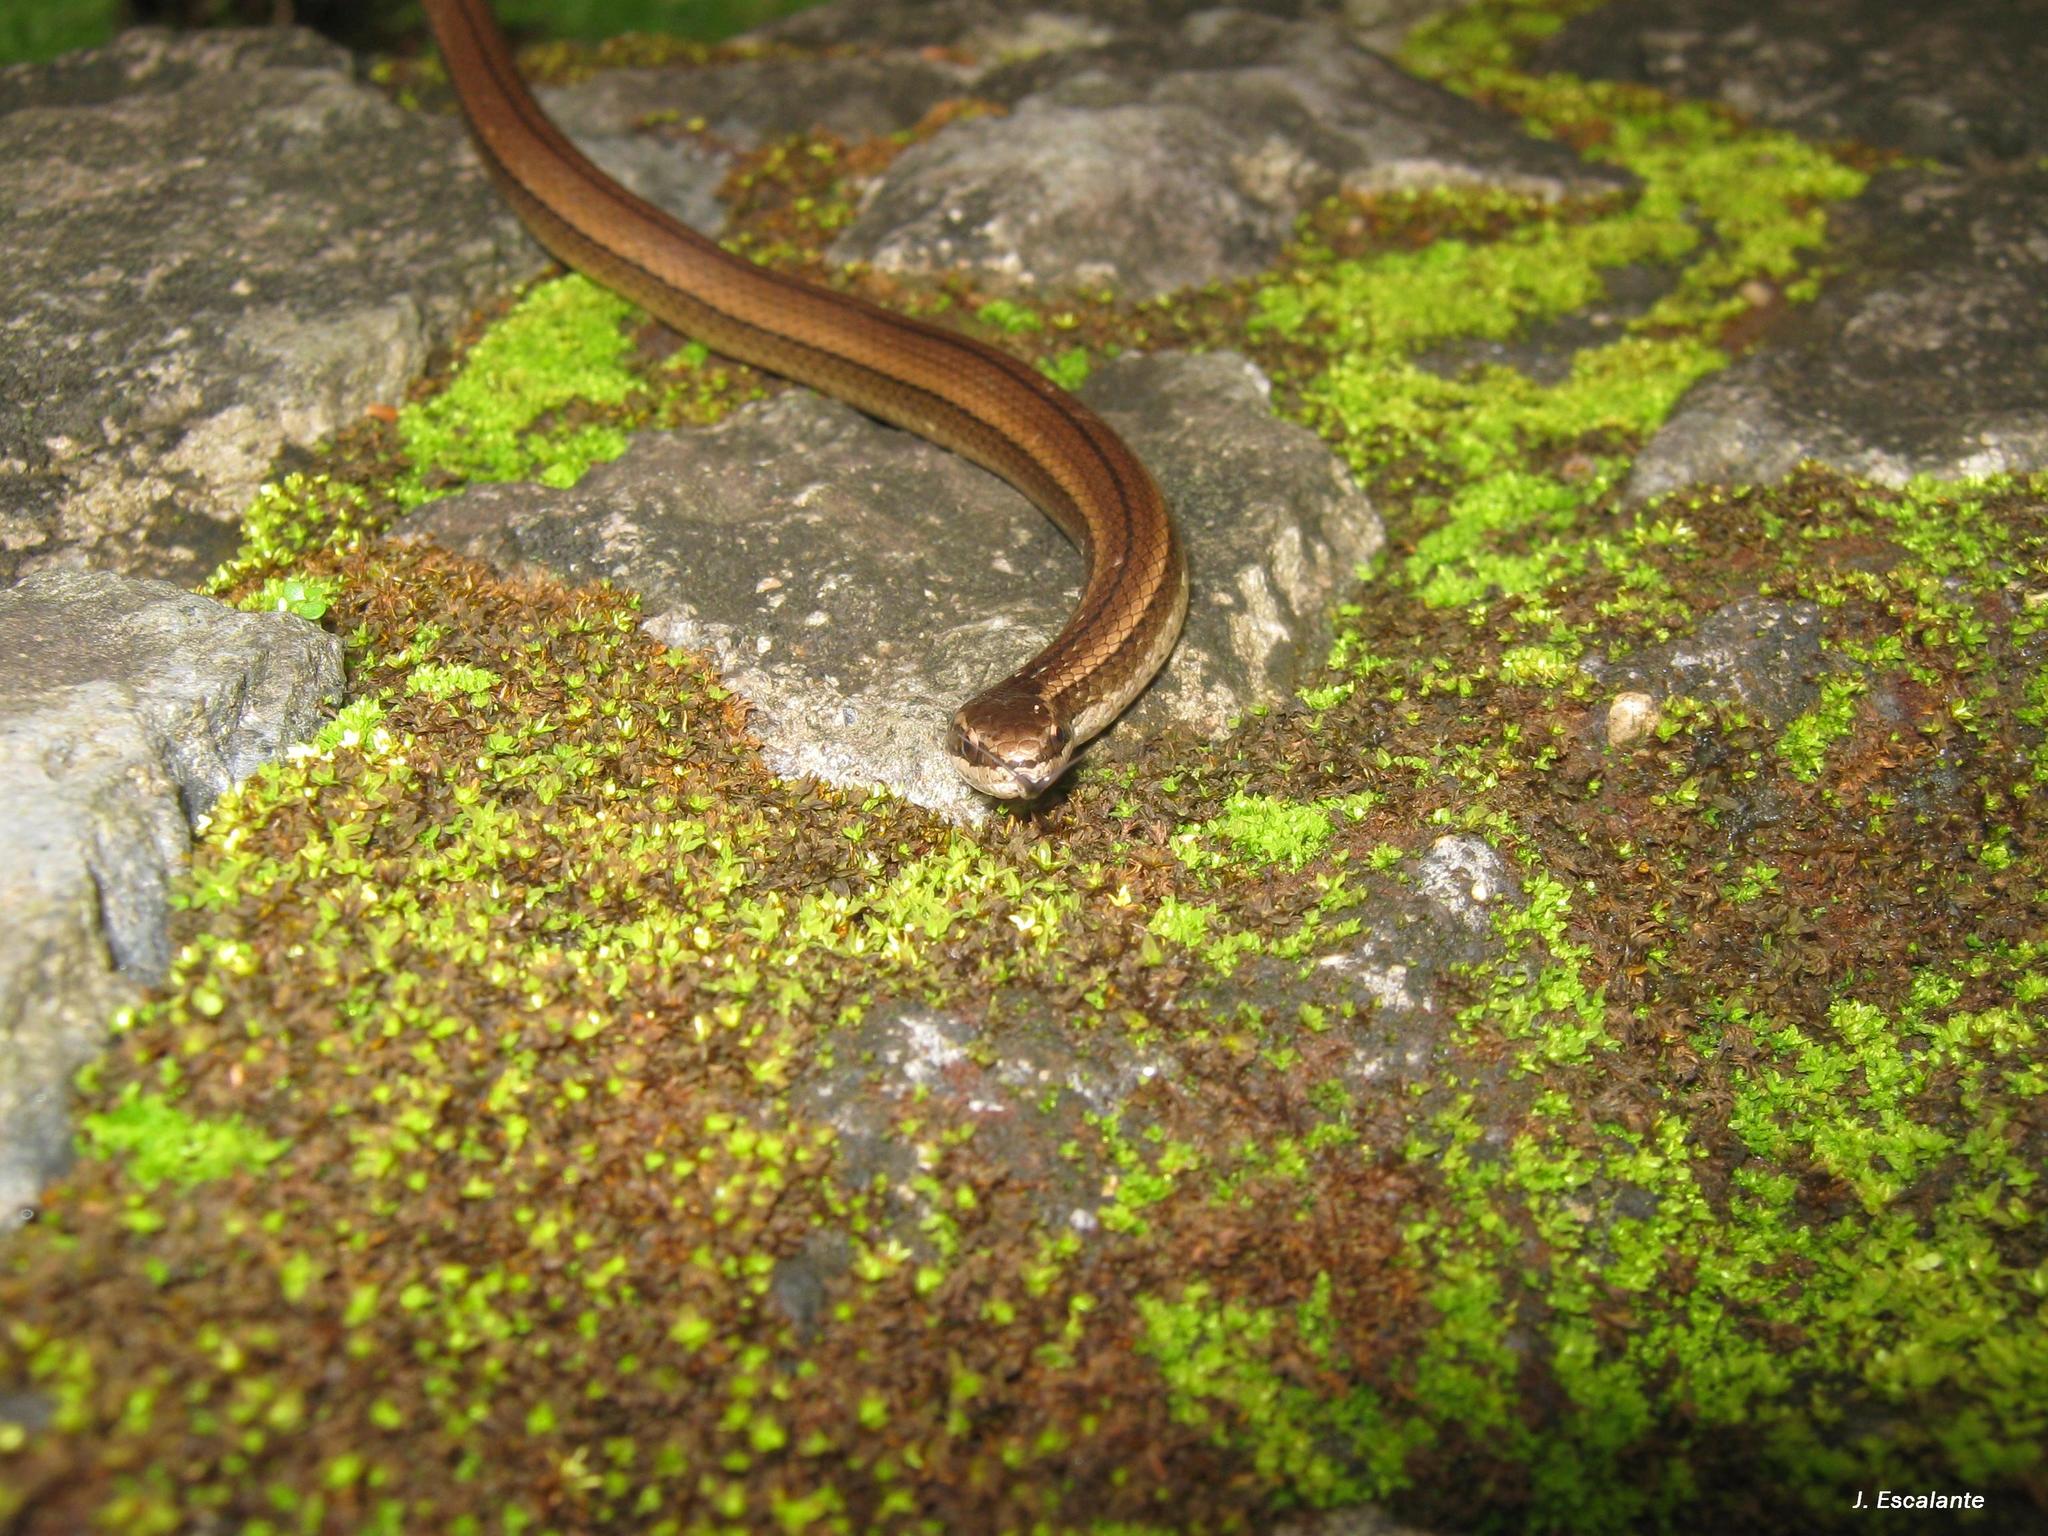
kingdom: Animalia
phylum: Chordata
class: Squamata
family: Colubridae
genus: Coniophanes
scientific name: Coniophanes imperialis
